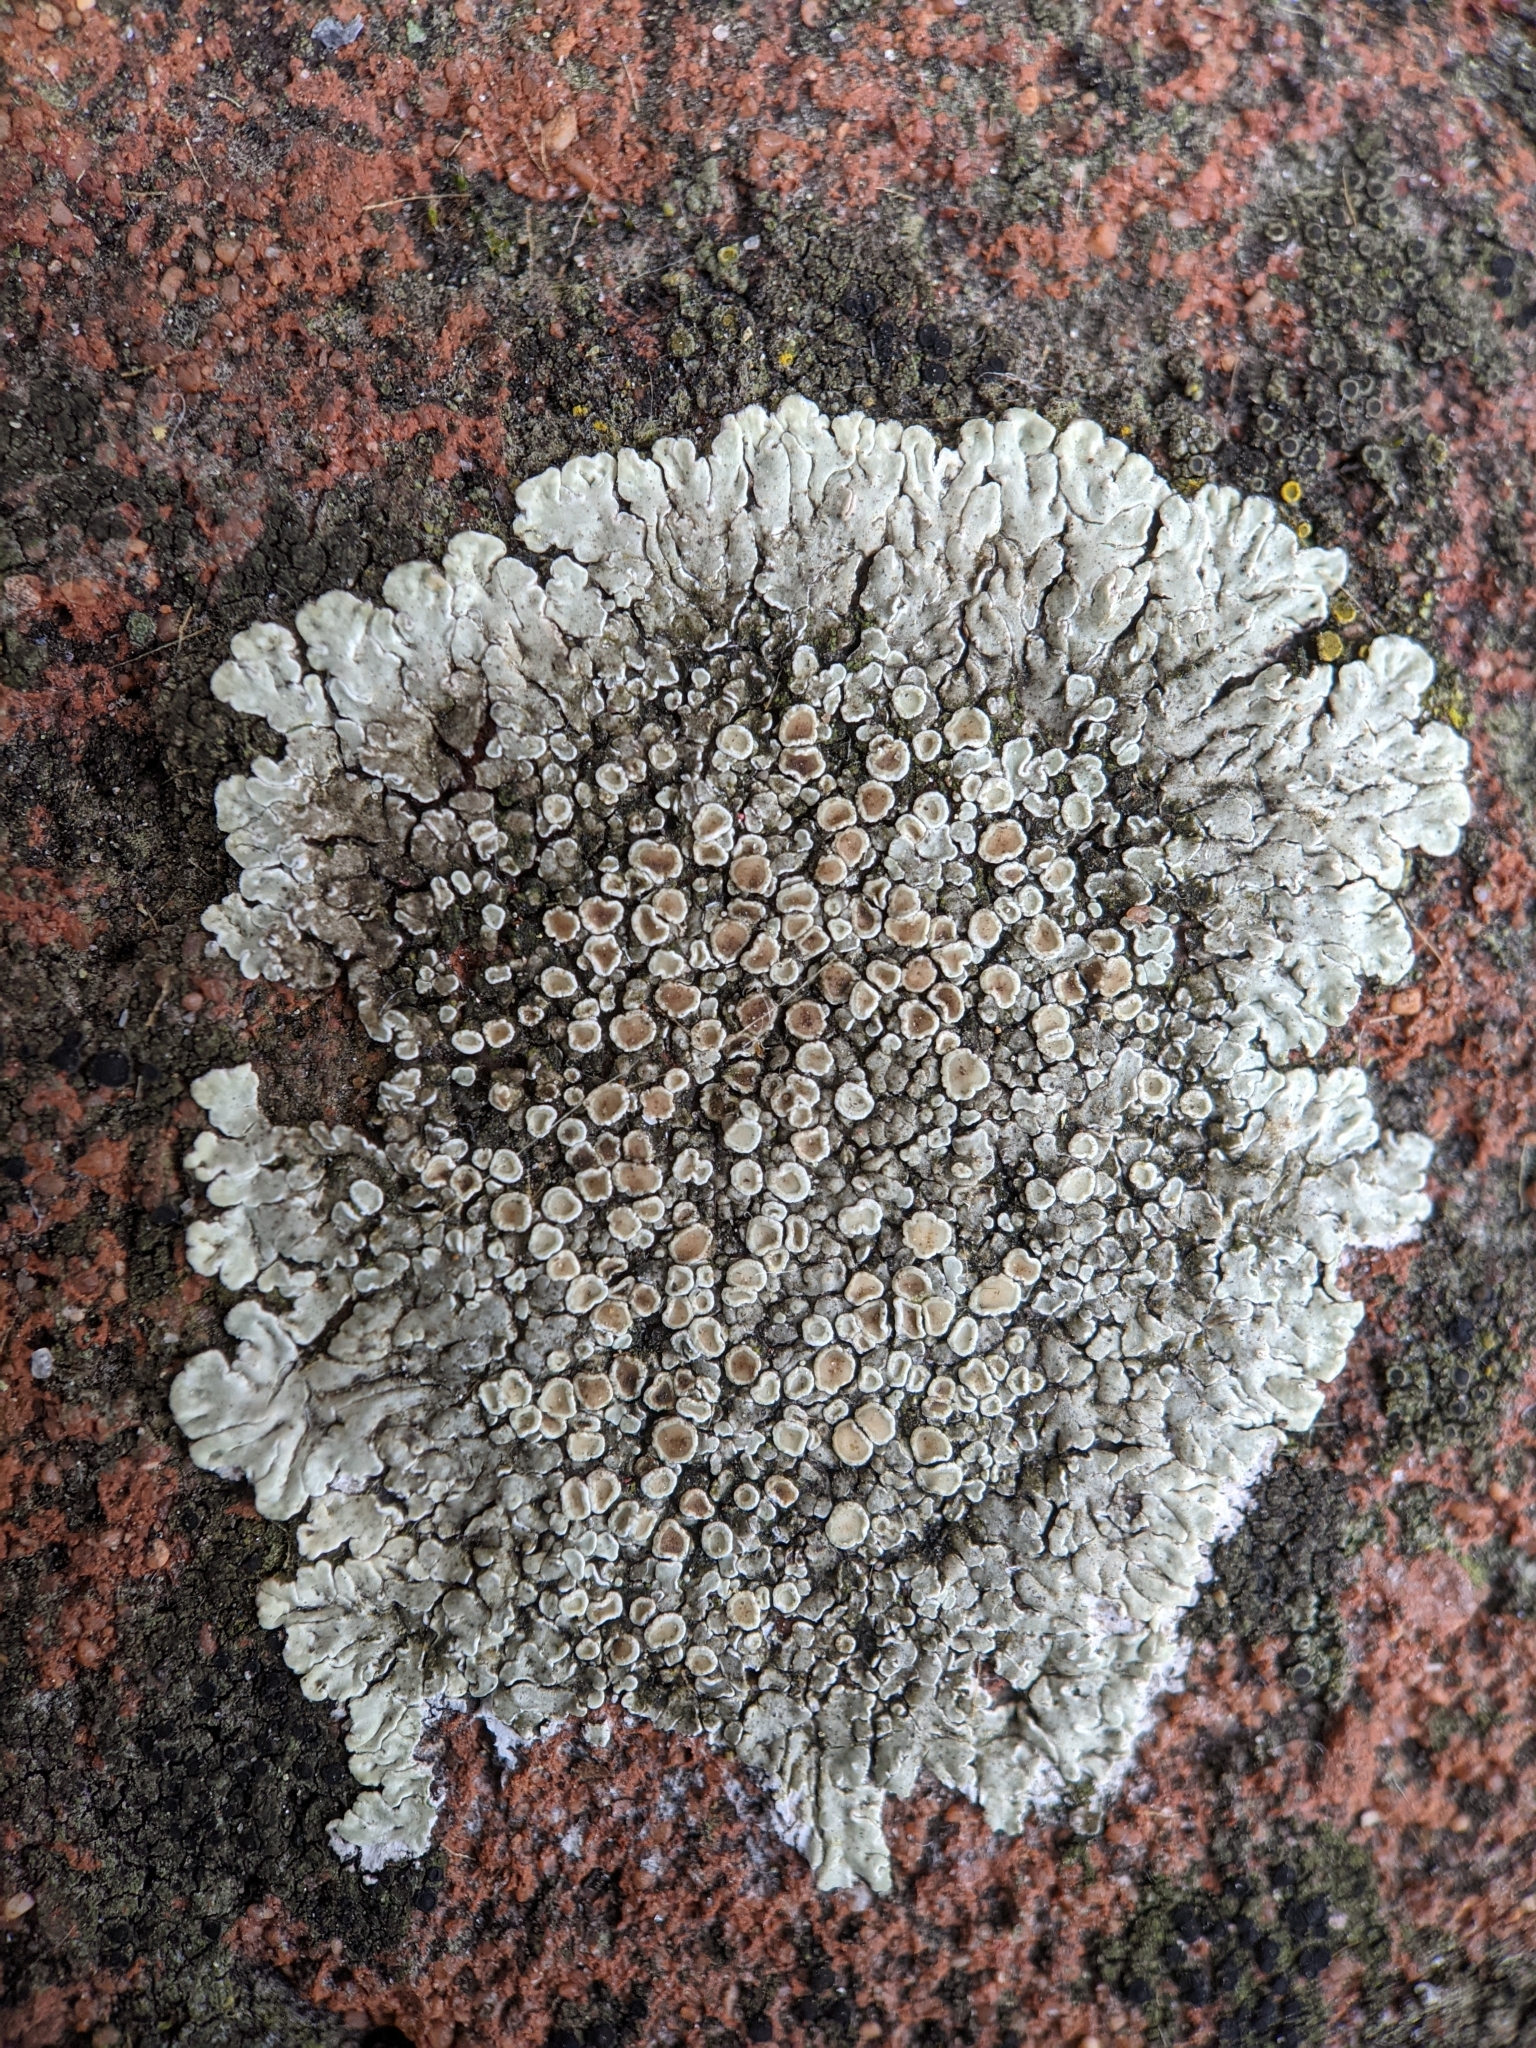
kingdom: Fungi
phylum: Ascomycota
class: Lecanoromycetes
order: Lecanorales
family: Lecanoraceae
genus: Protoparmeliopsis
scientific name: Protoparmeliopsis muralis
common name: Stonewall rim lichen
